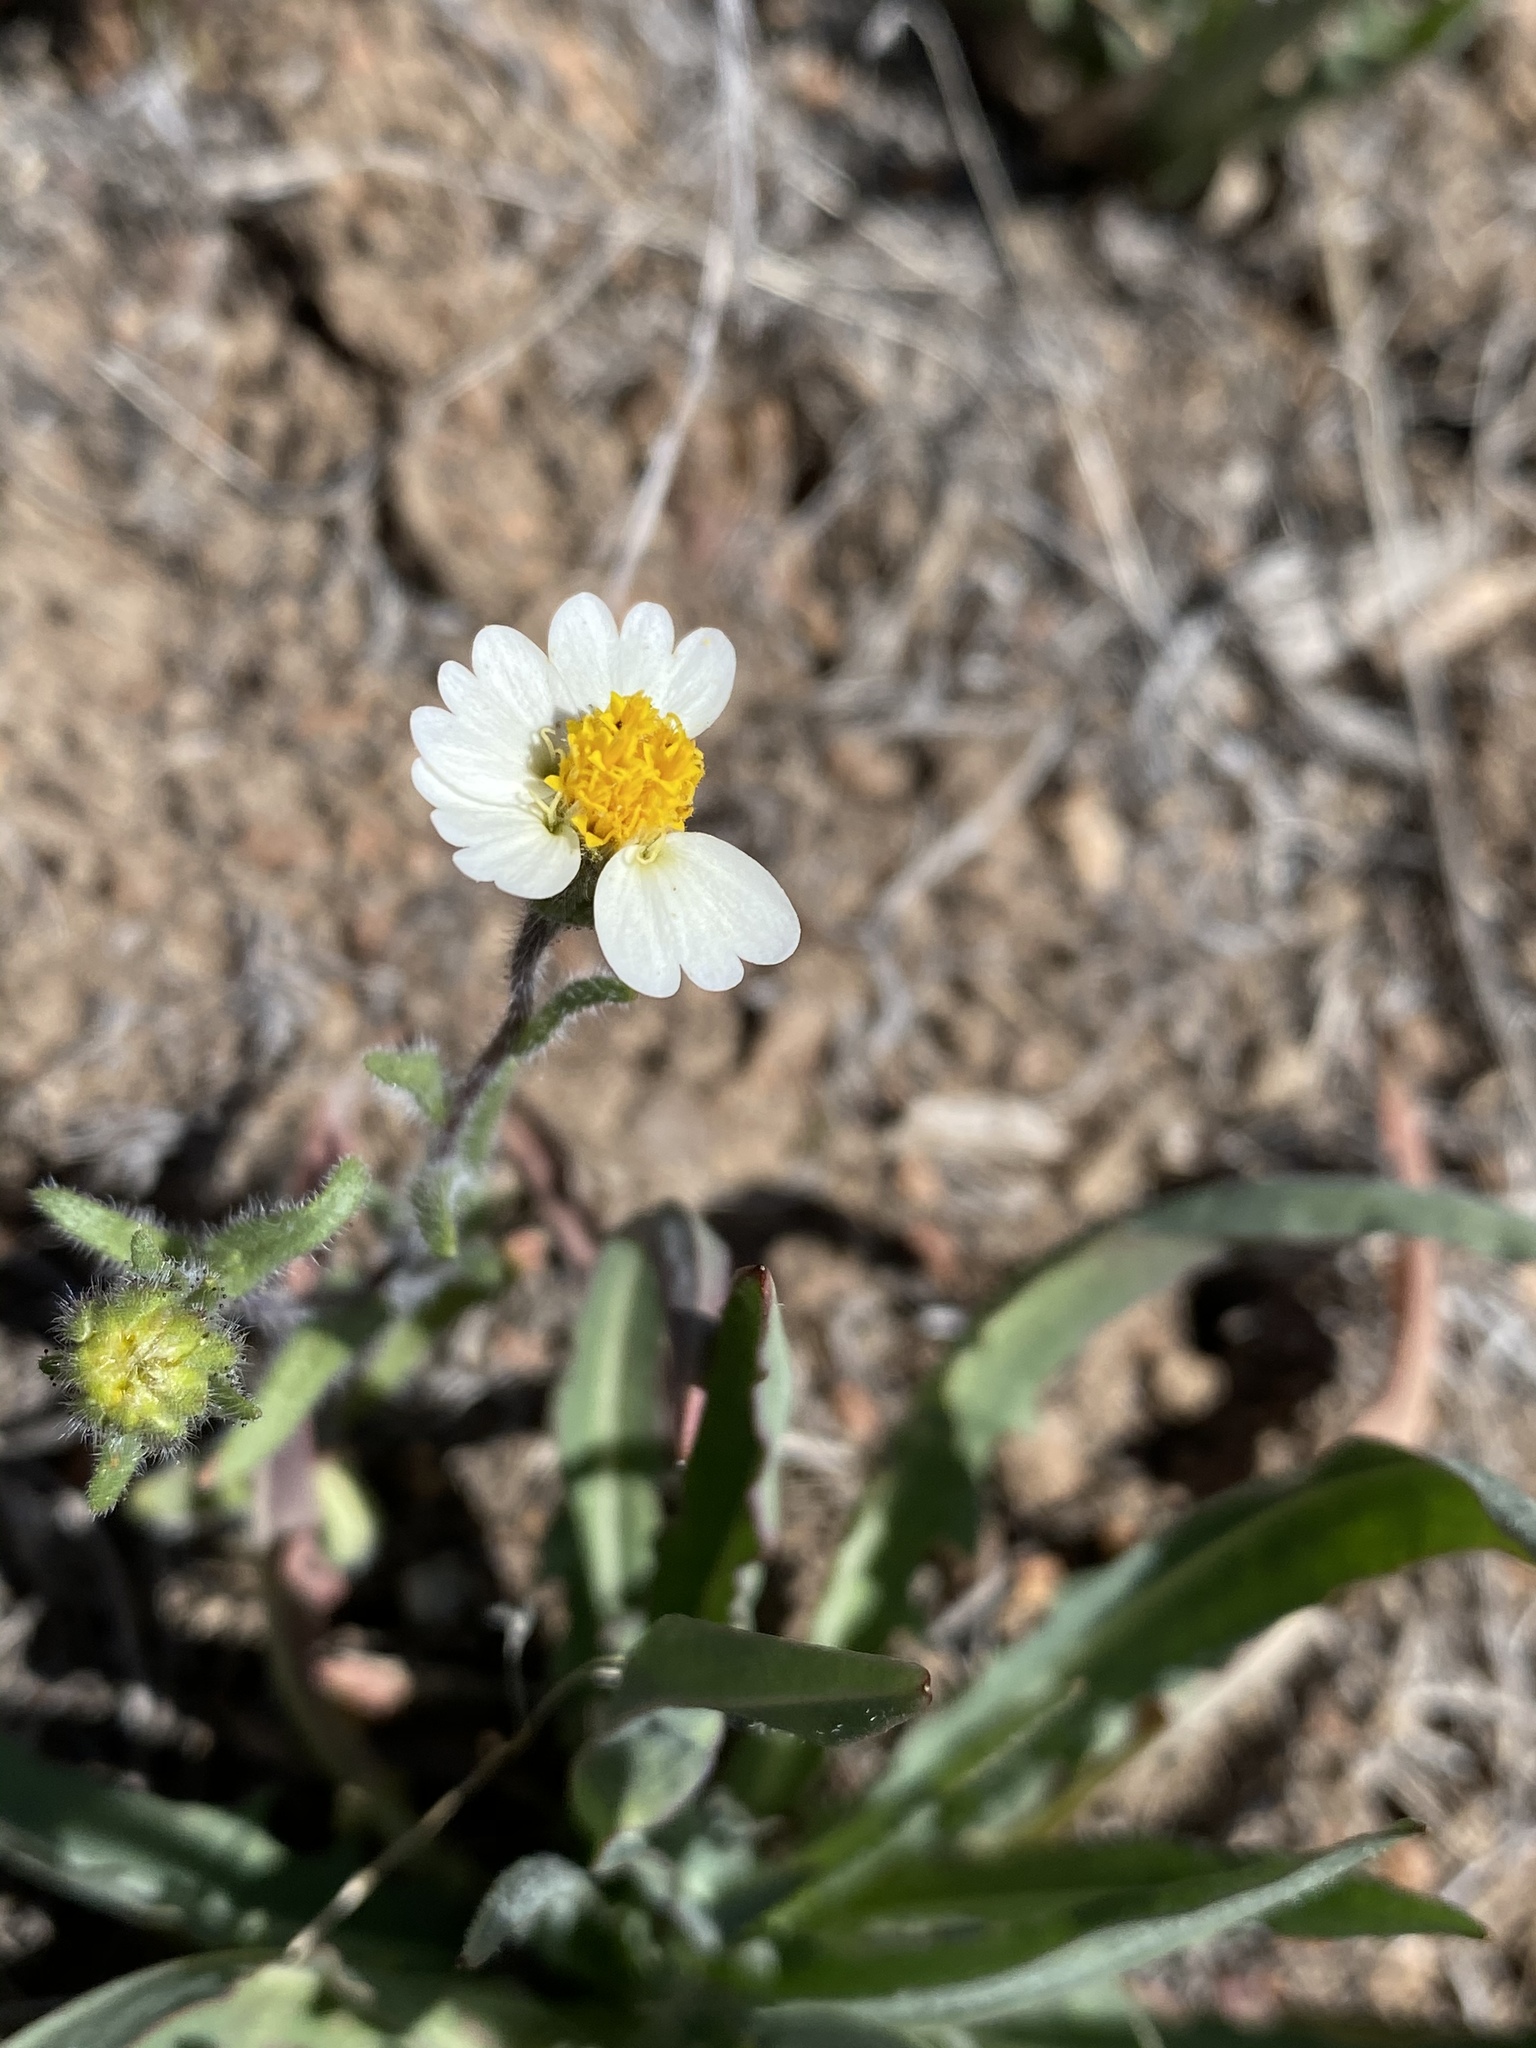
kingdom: Plantae
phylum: Tracheophyta
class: Magnoliopsida
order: Asterales
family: Asteraceae
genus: Layia
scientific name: Layia glandulosa
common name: White layia
